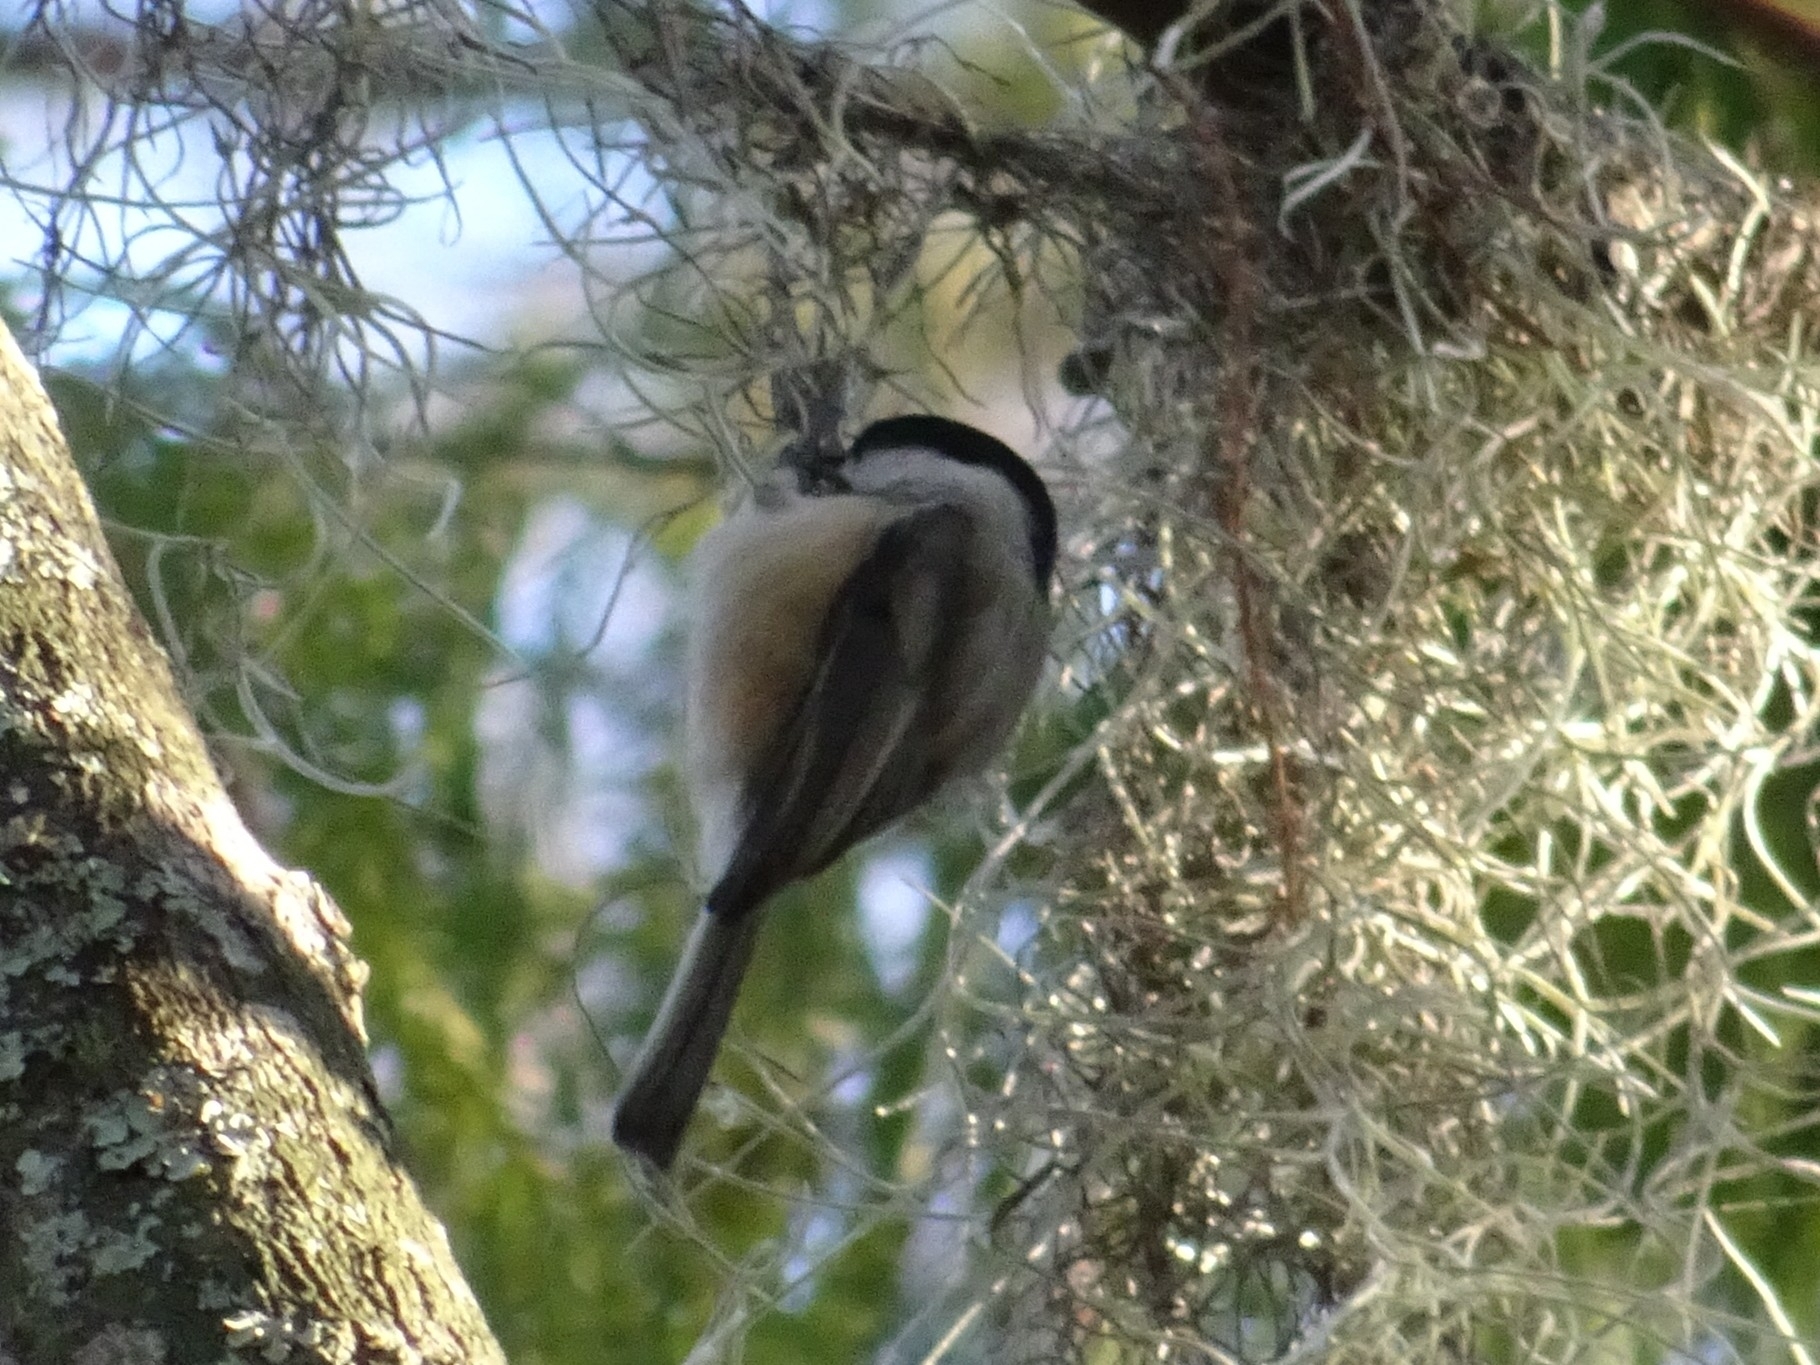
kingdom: Animalia
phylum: Chordata
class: Aves
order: Passeriformes
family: Paridae
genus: Poecile
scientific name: Poecile carolinensis
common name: Carolina chickadee
